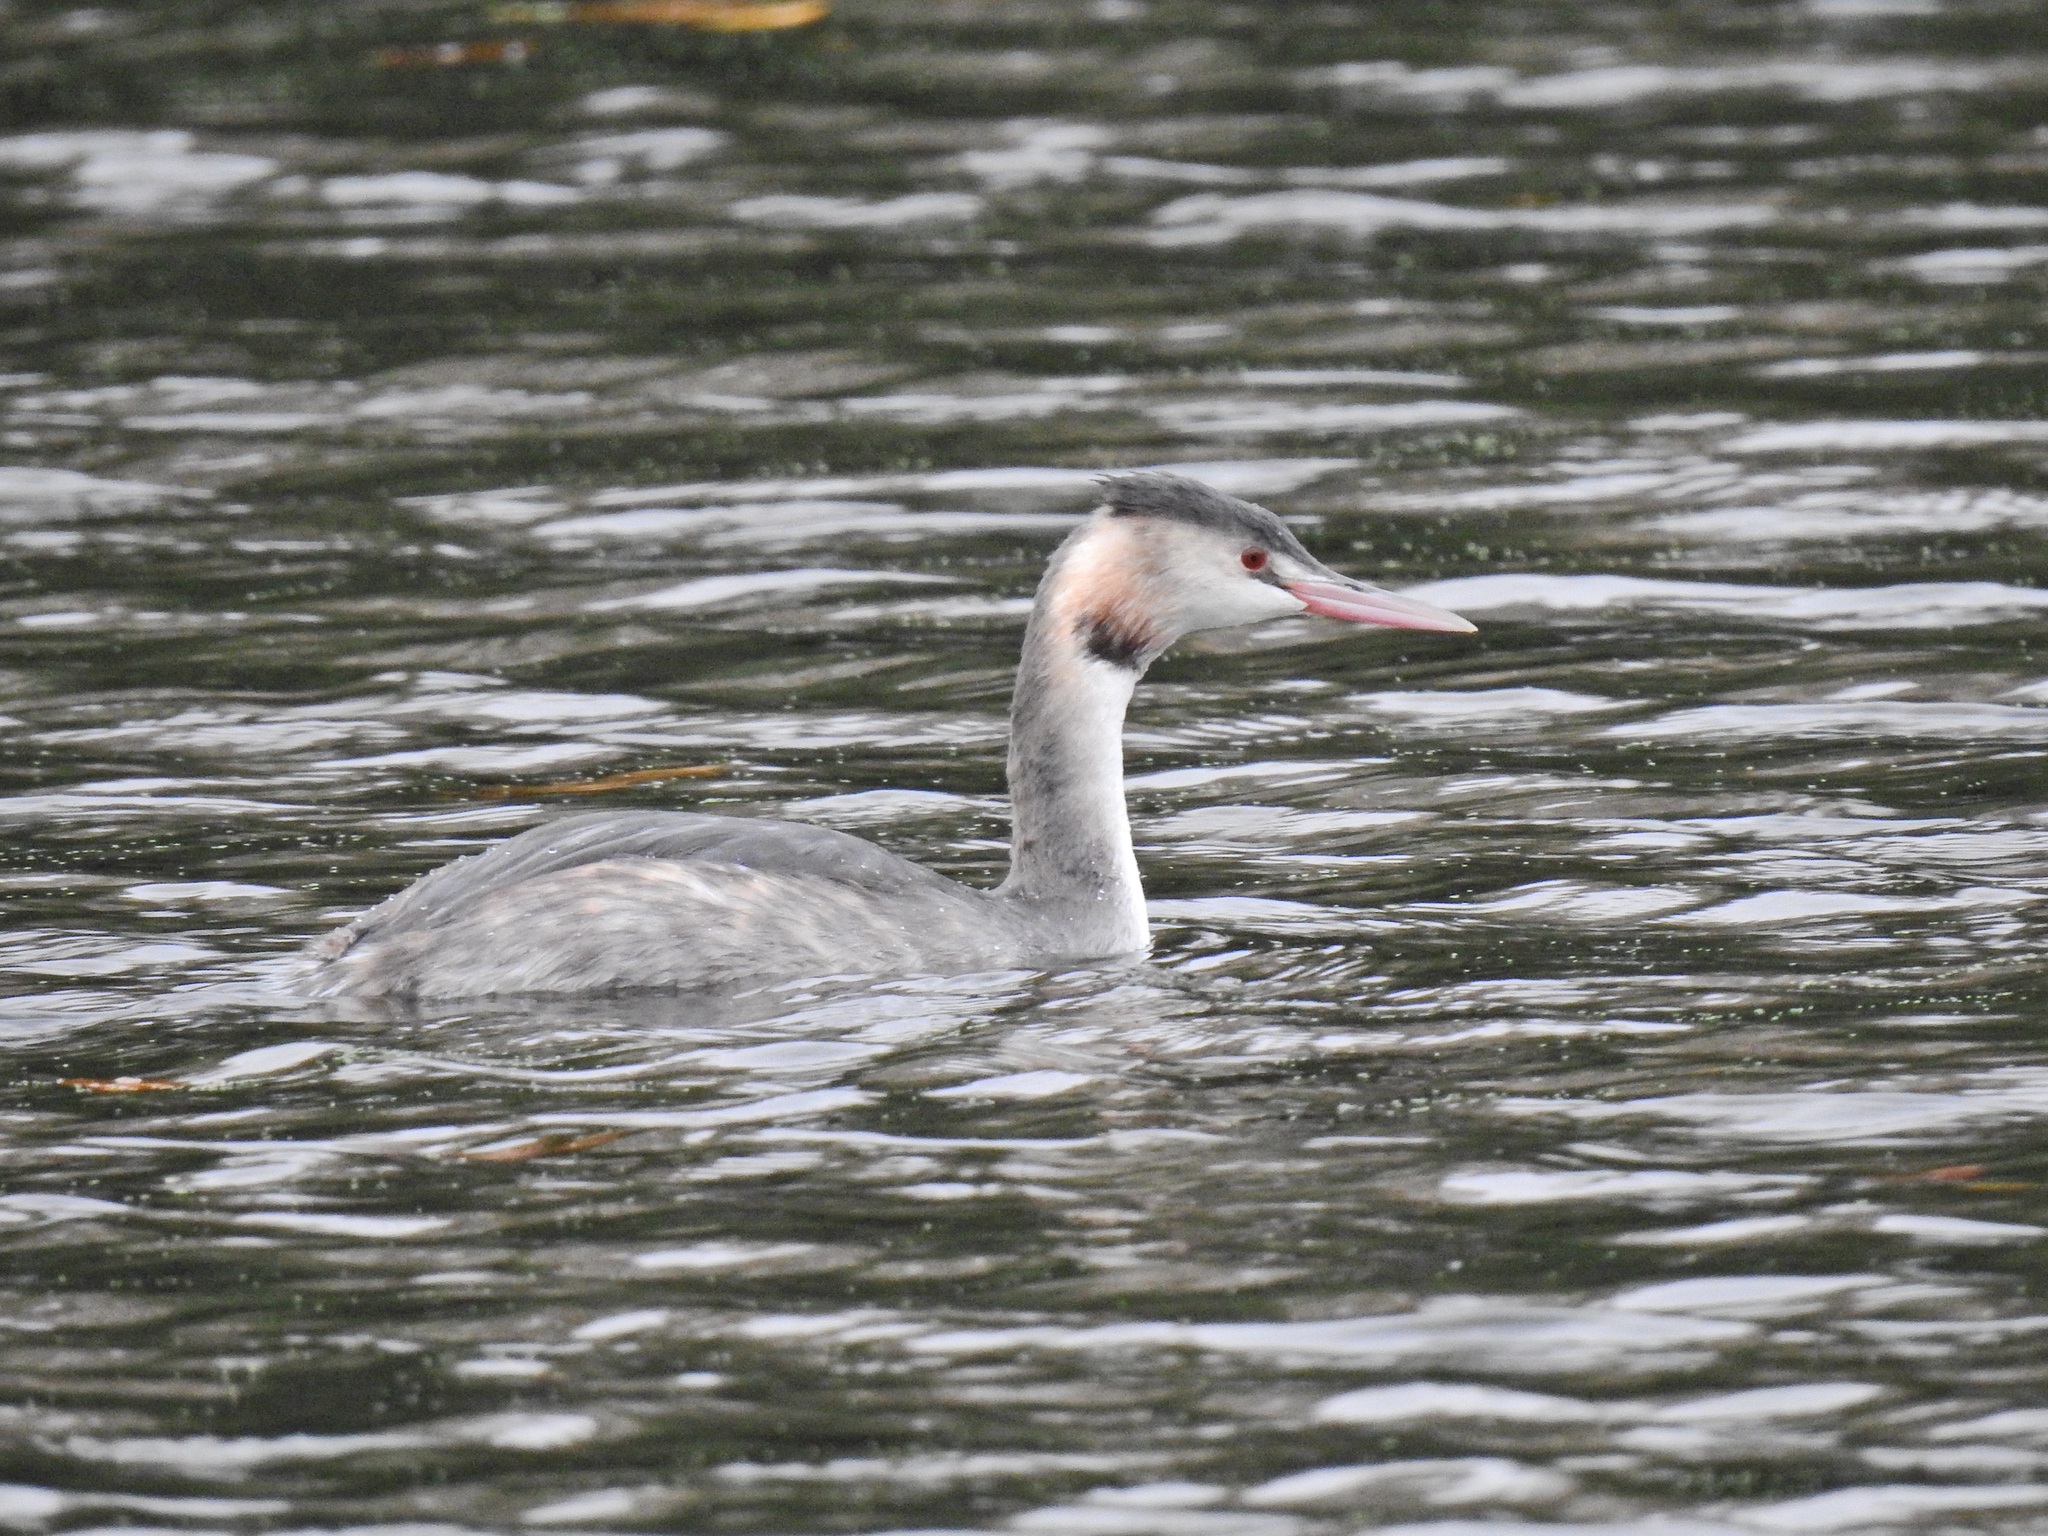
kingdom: Animalia
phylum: Chordata
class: Aves
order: Podicipediformes
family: Podicipedidae
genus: Podiceps
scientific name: Podiceps cristatus
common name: Great crested grebe
